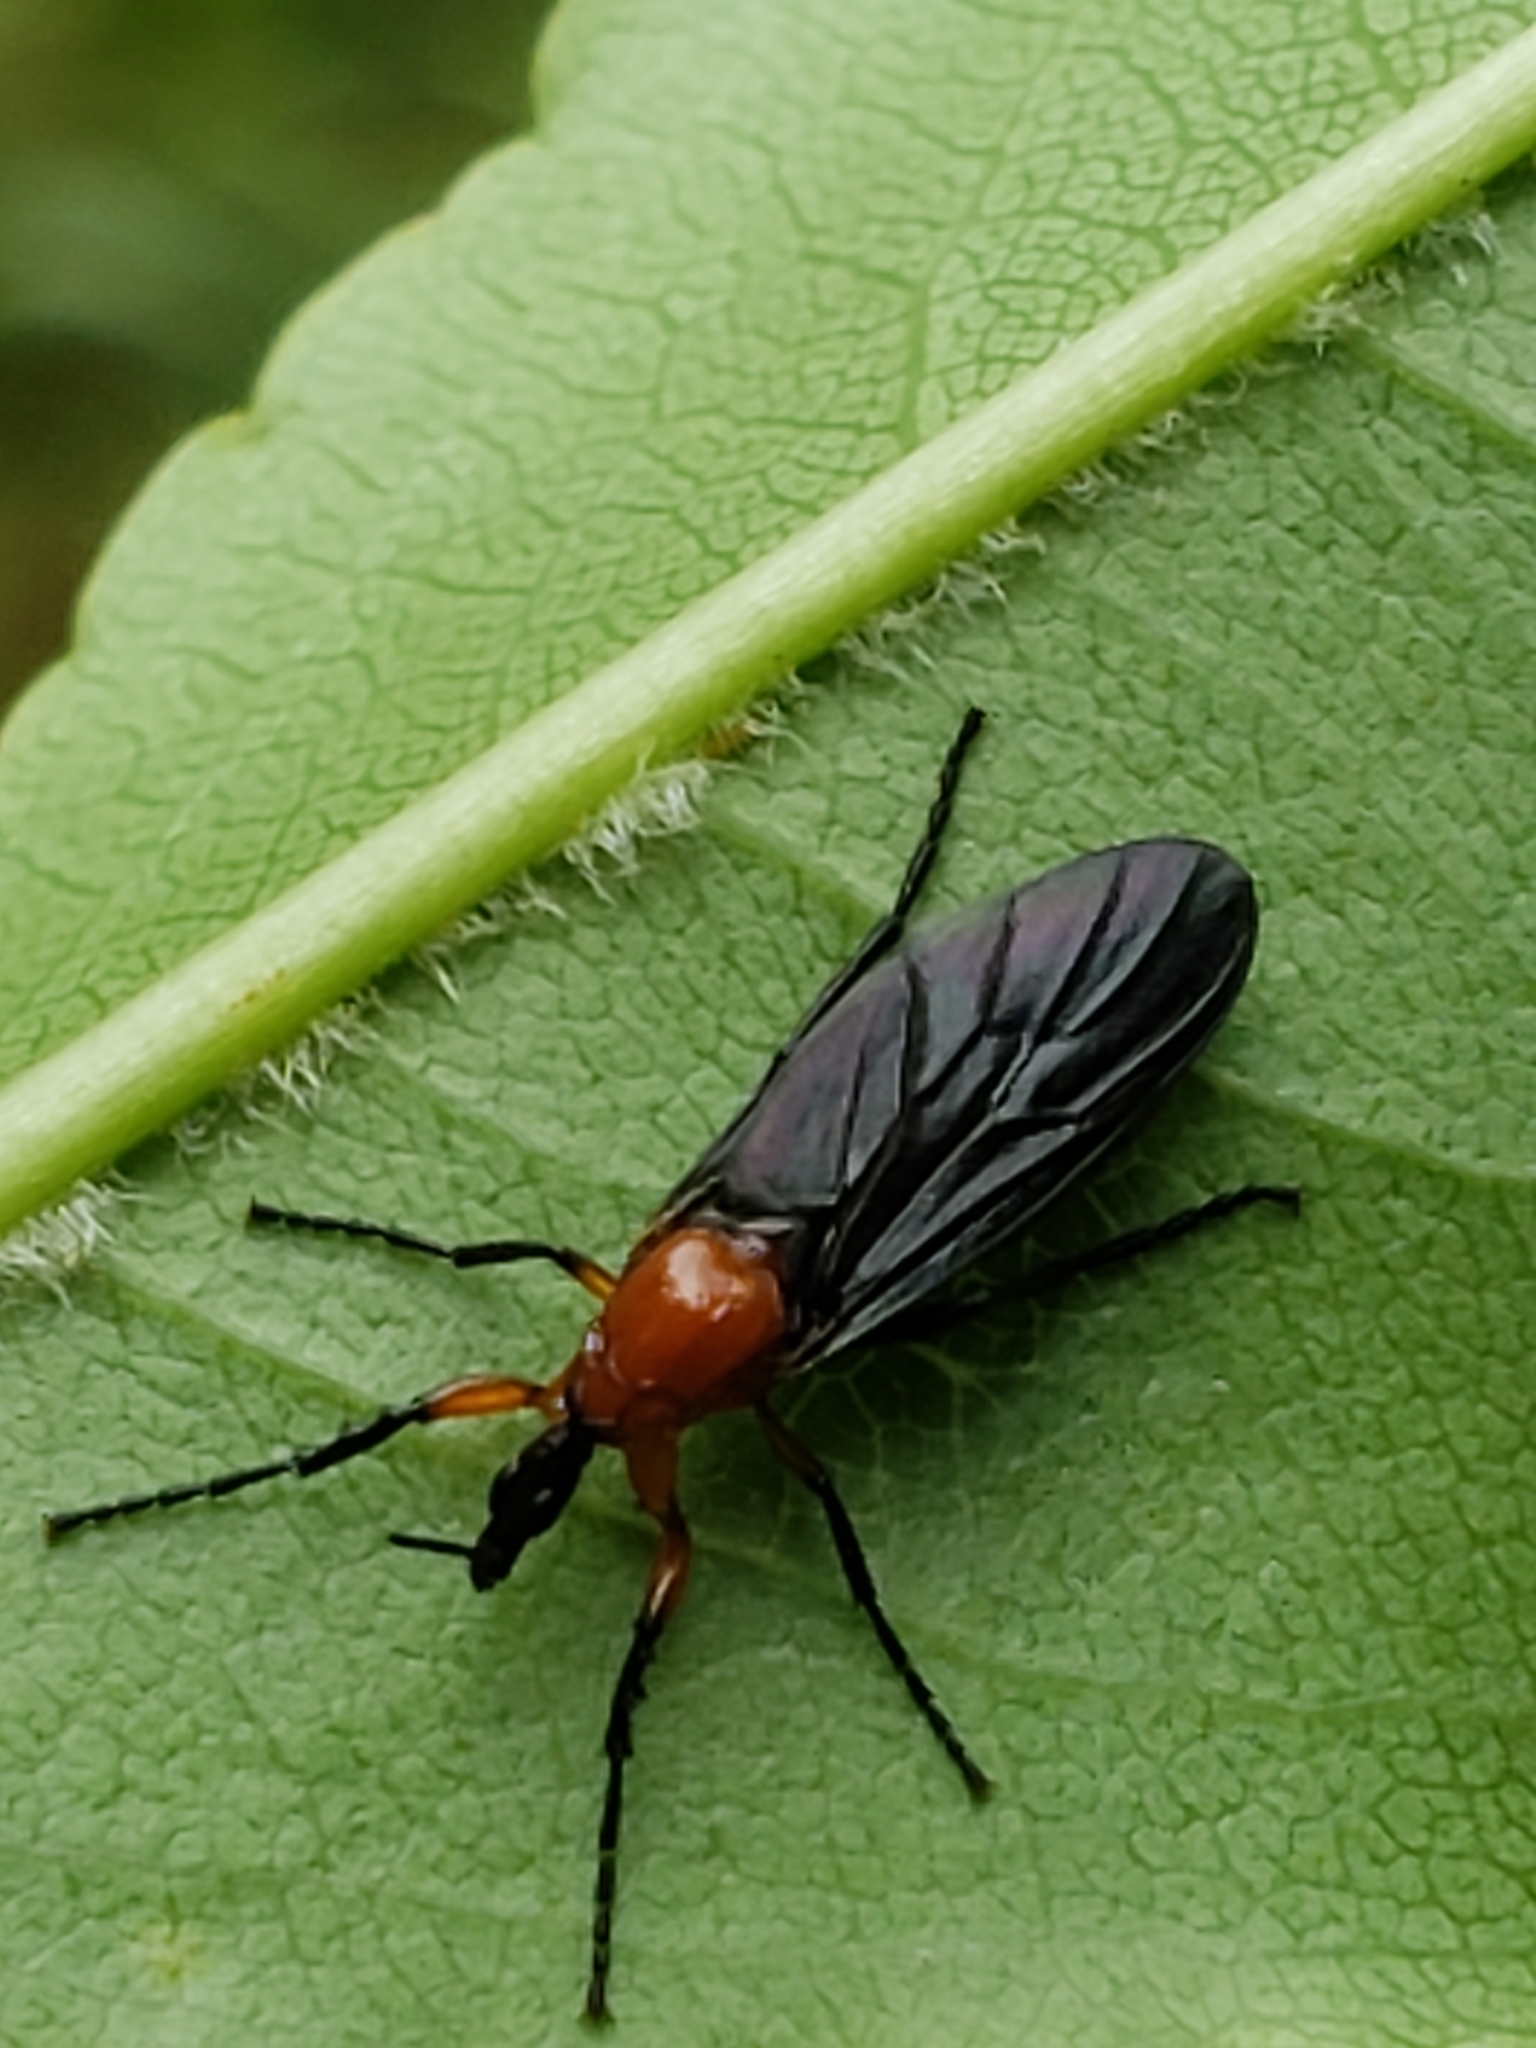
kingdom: Animalia
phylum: Arthropoda
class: Insecta
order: Diptera
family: Bibionidae
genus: Dilophus
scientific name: Dilophus spinipes
